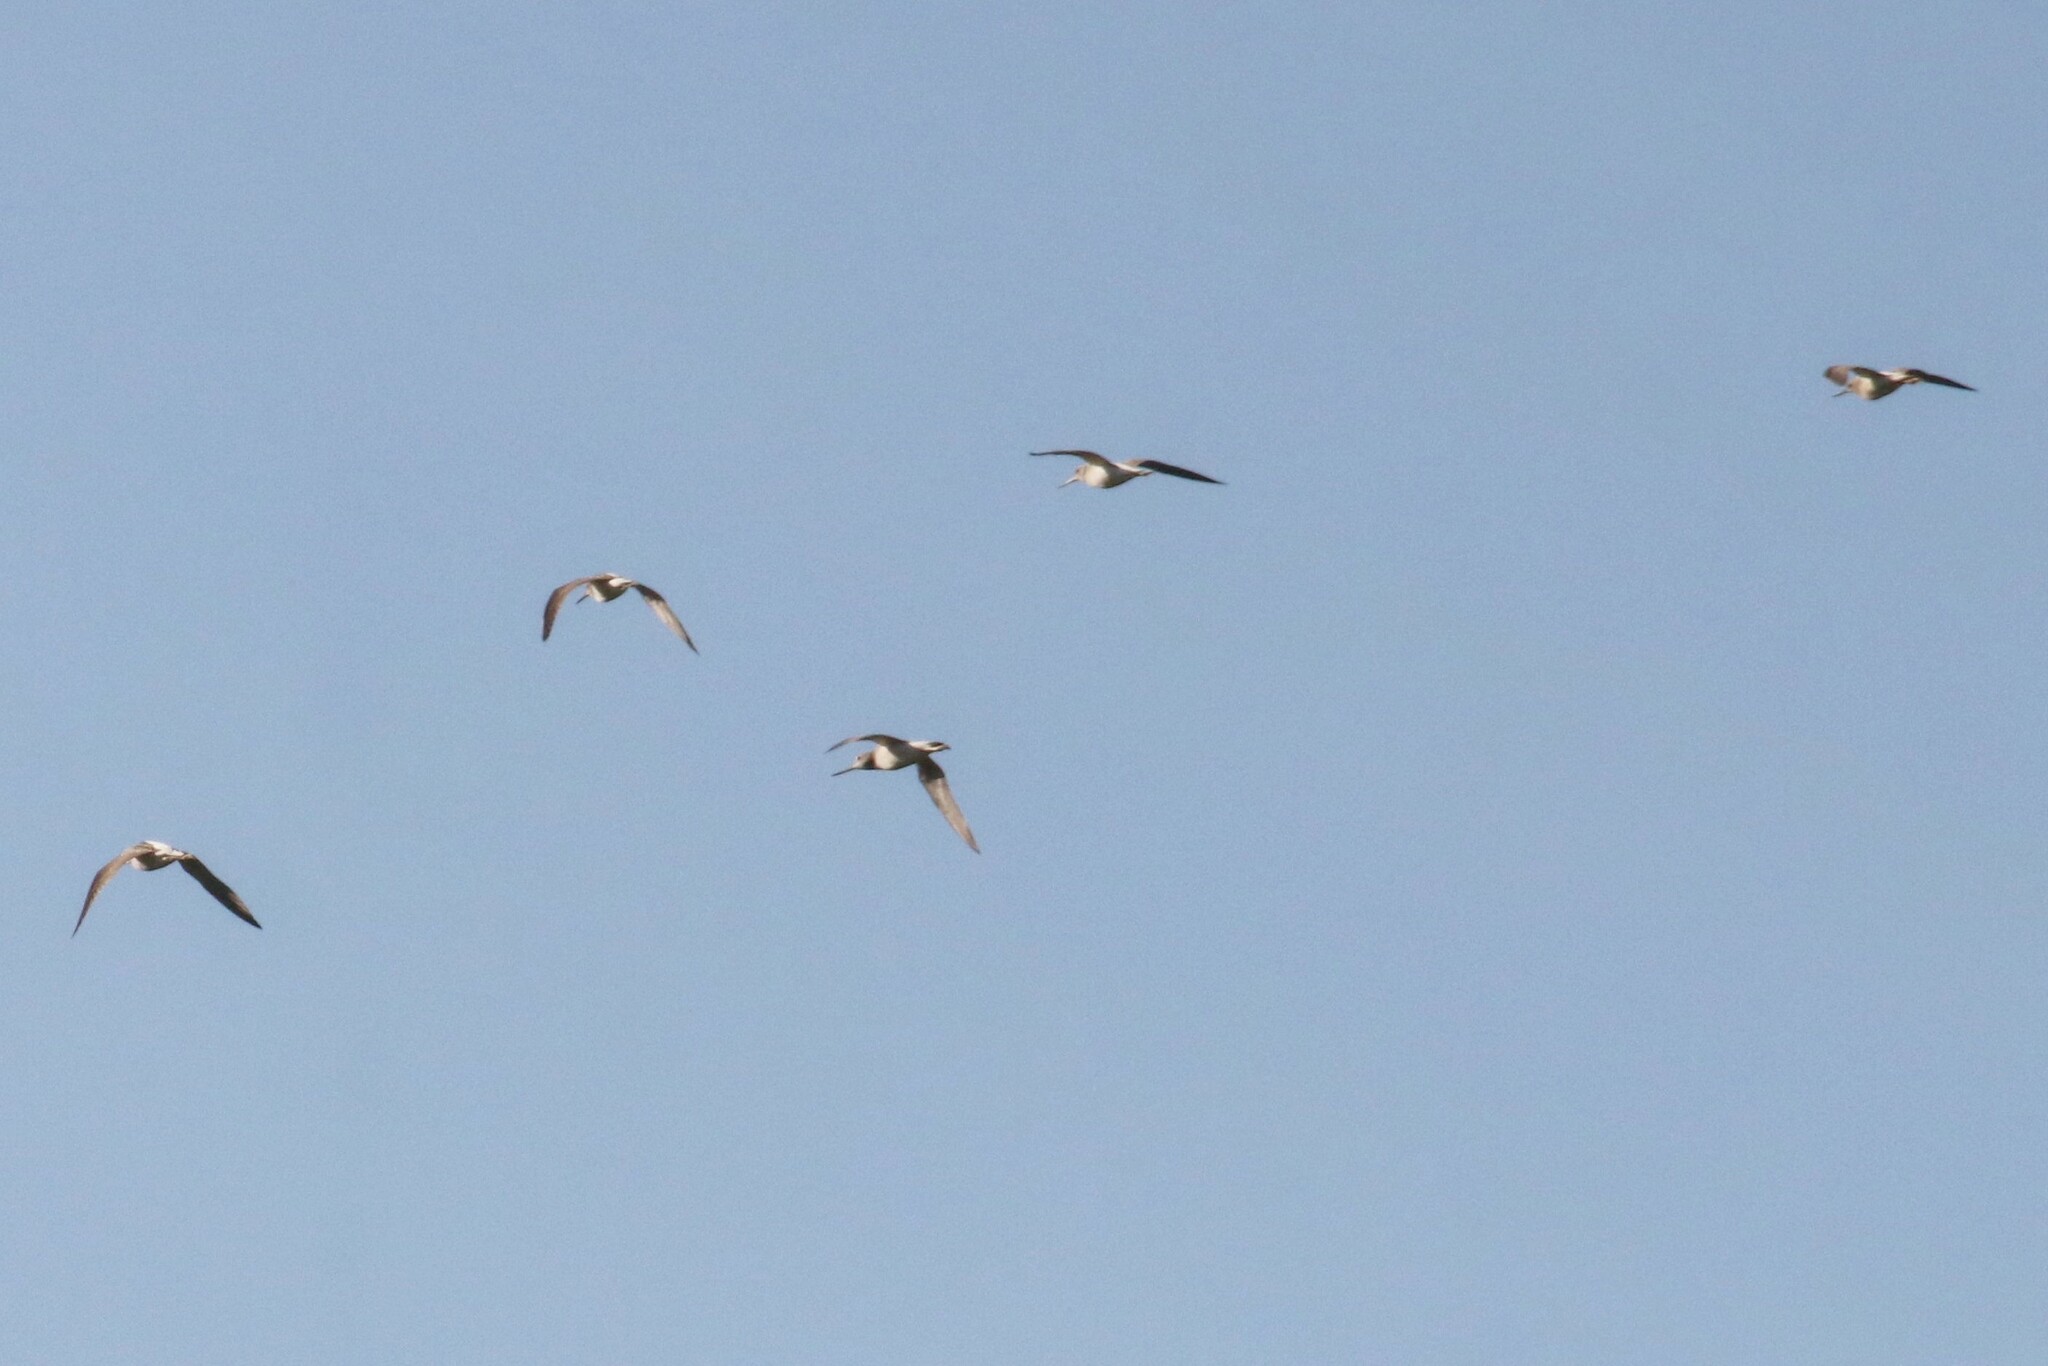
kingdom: Animalia
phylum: Chordata
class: Aves
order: Charadriiformes
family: Scolopacidae
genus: Tringa
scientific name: Tringa nebularia
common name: Common greenshank
